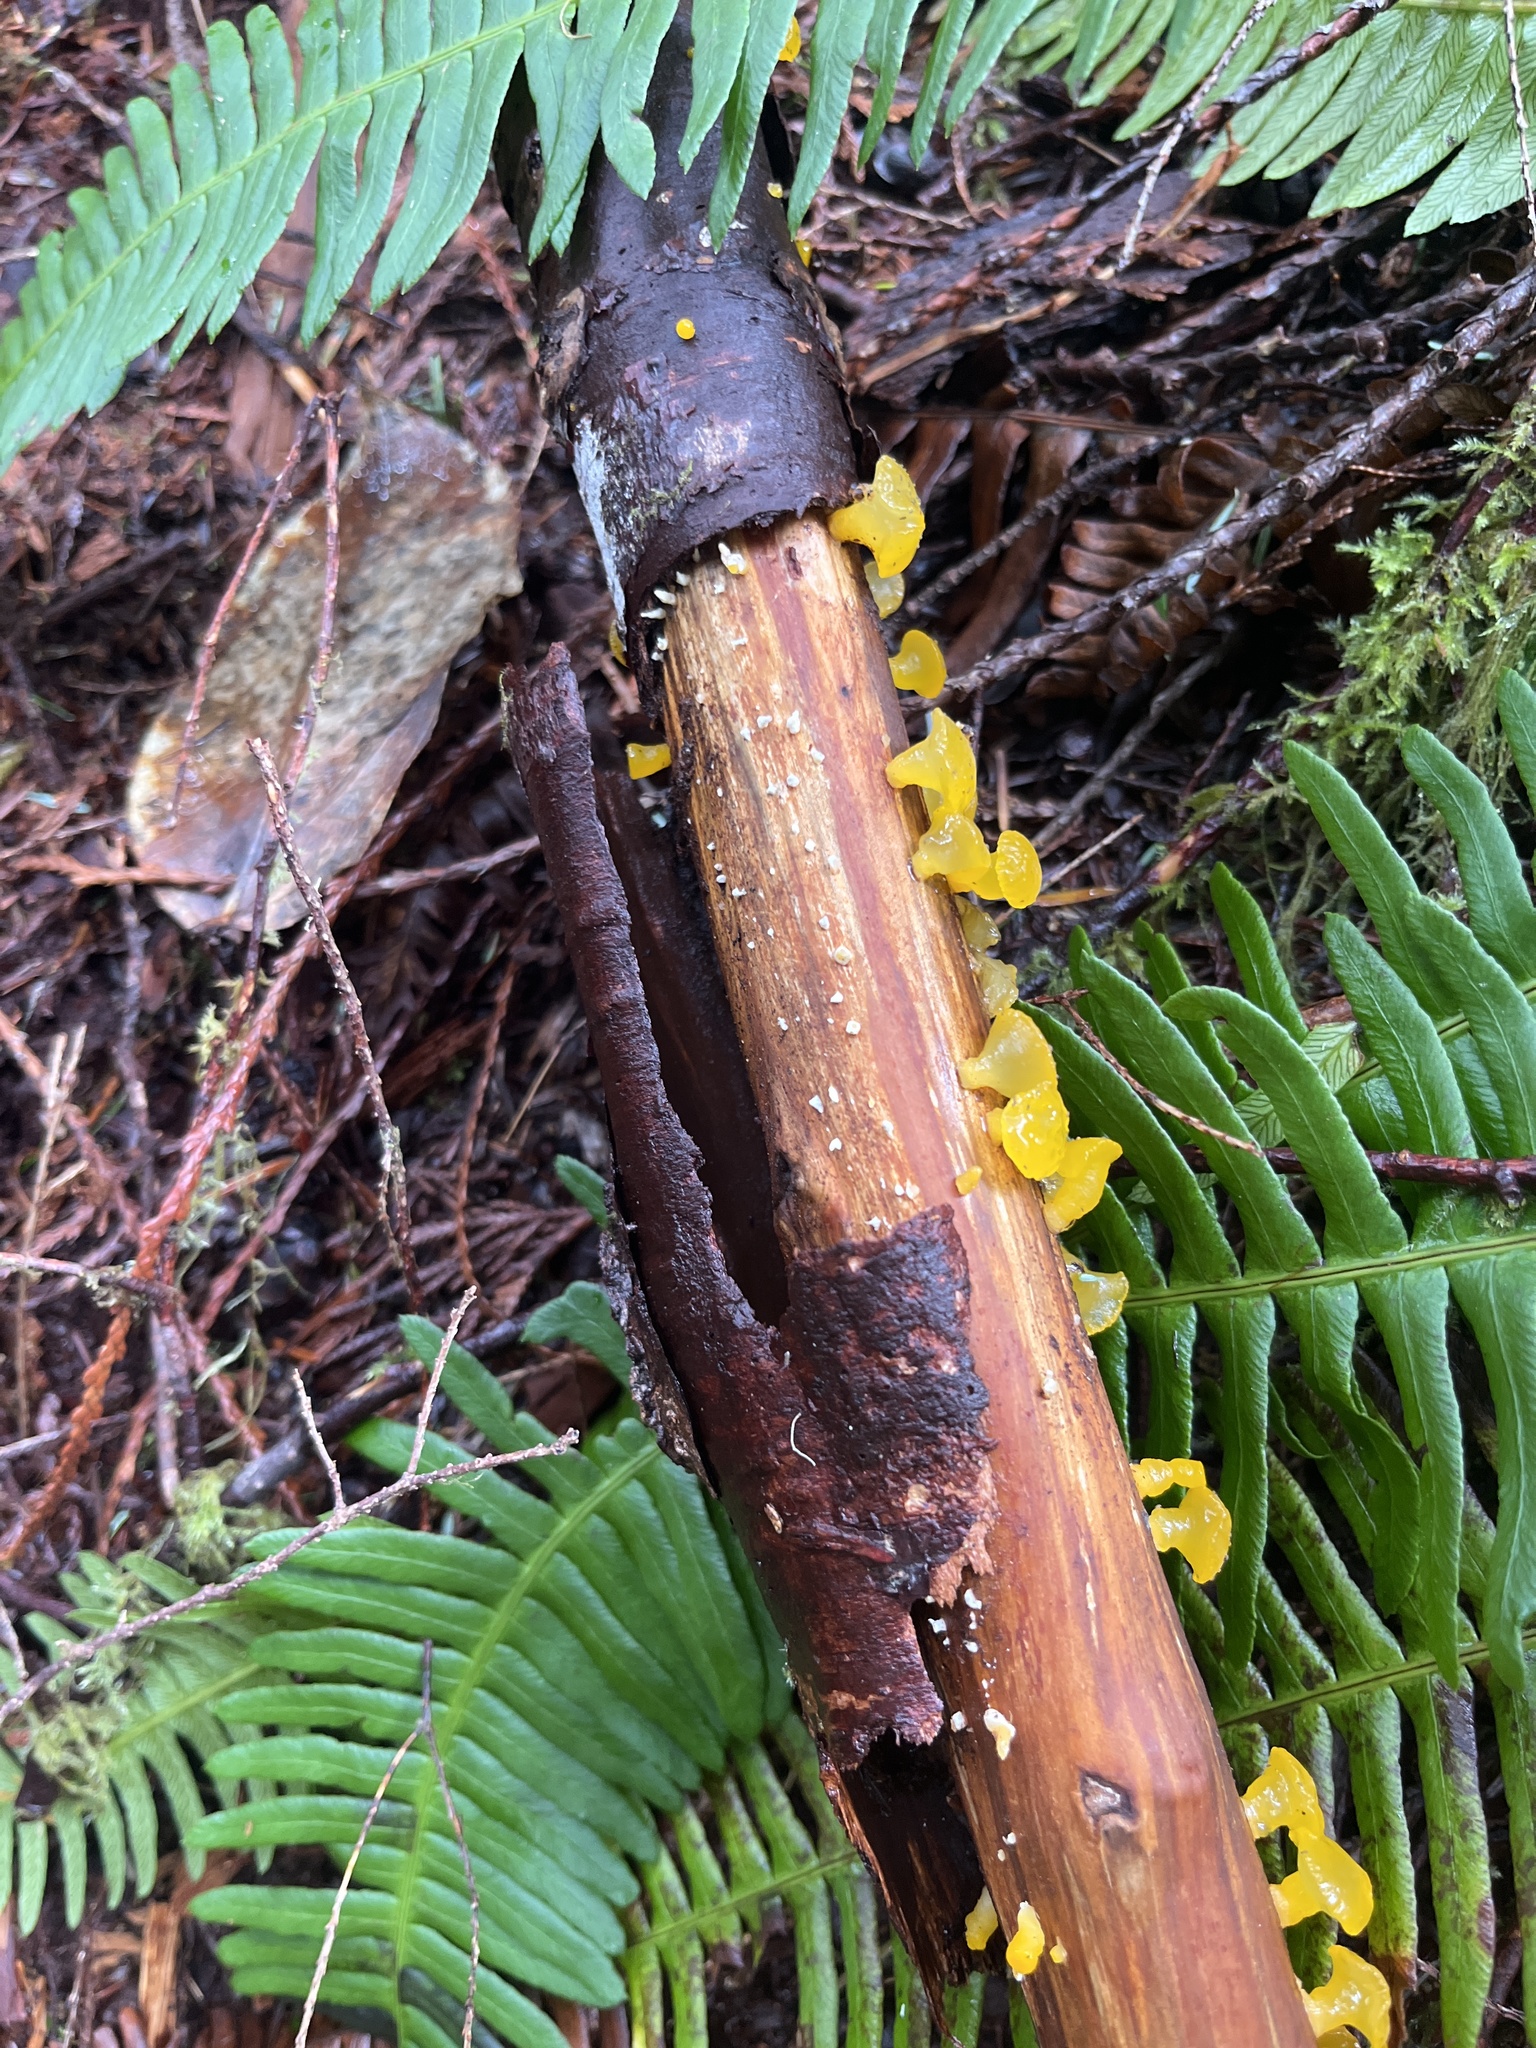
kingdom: Fungi
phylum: Basidiomycota
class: Dacrymycetes
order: Dacrymycetales
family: Dacrymycetaceae
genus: Guepiniopsis
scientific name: Guepiniopsis alpina
